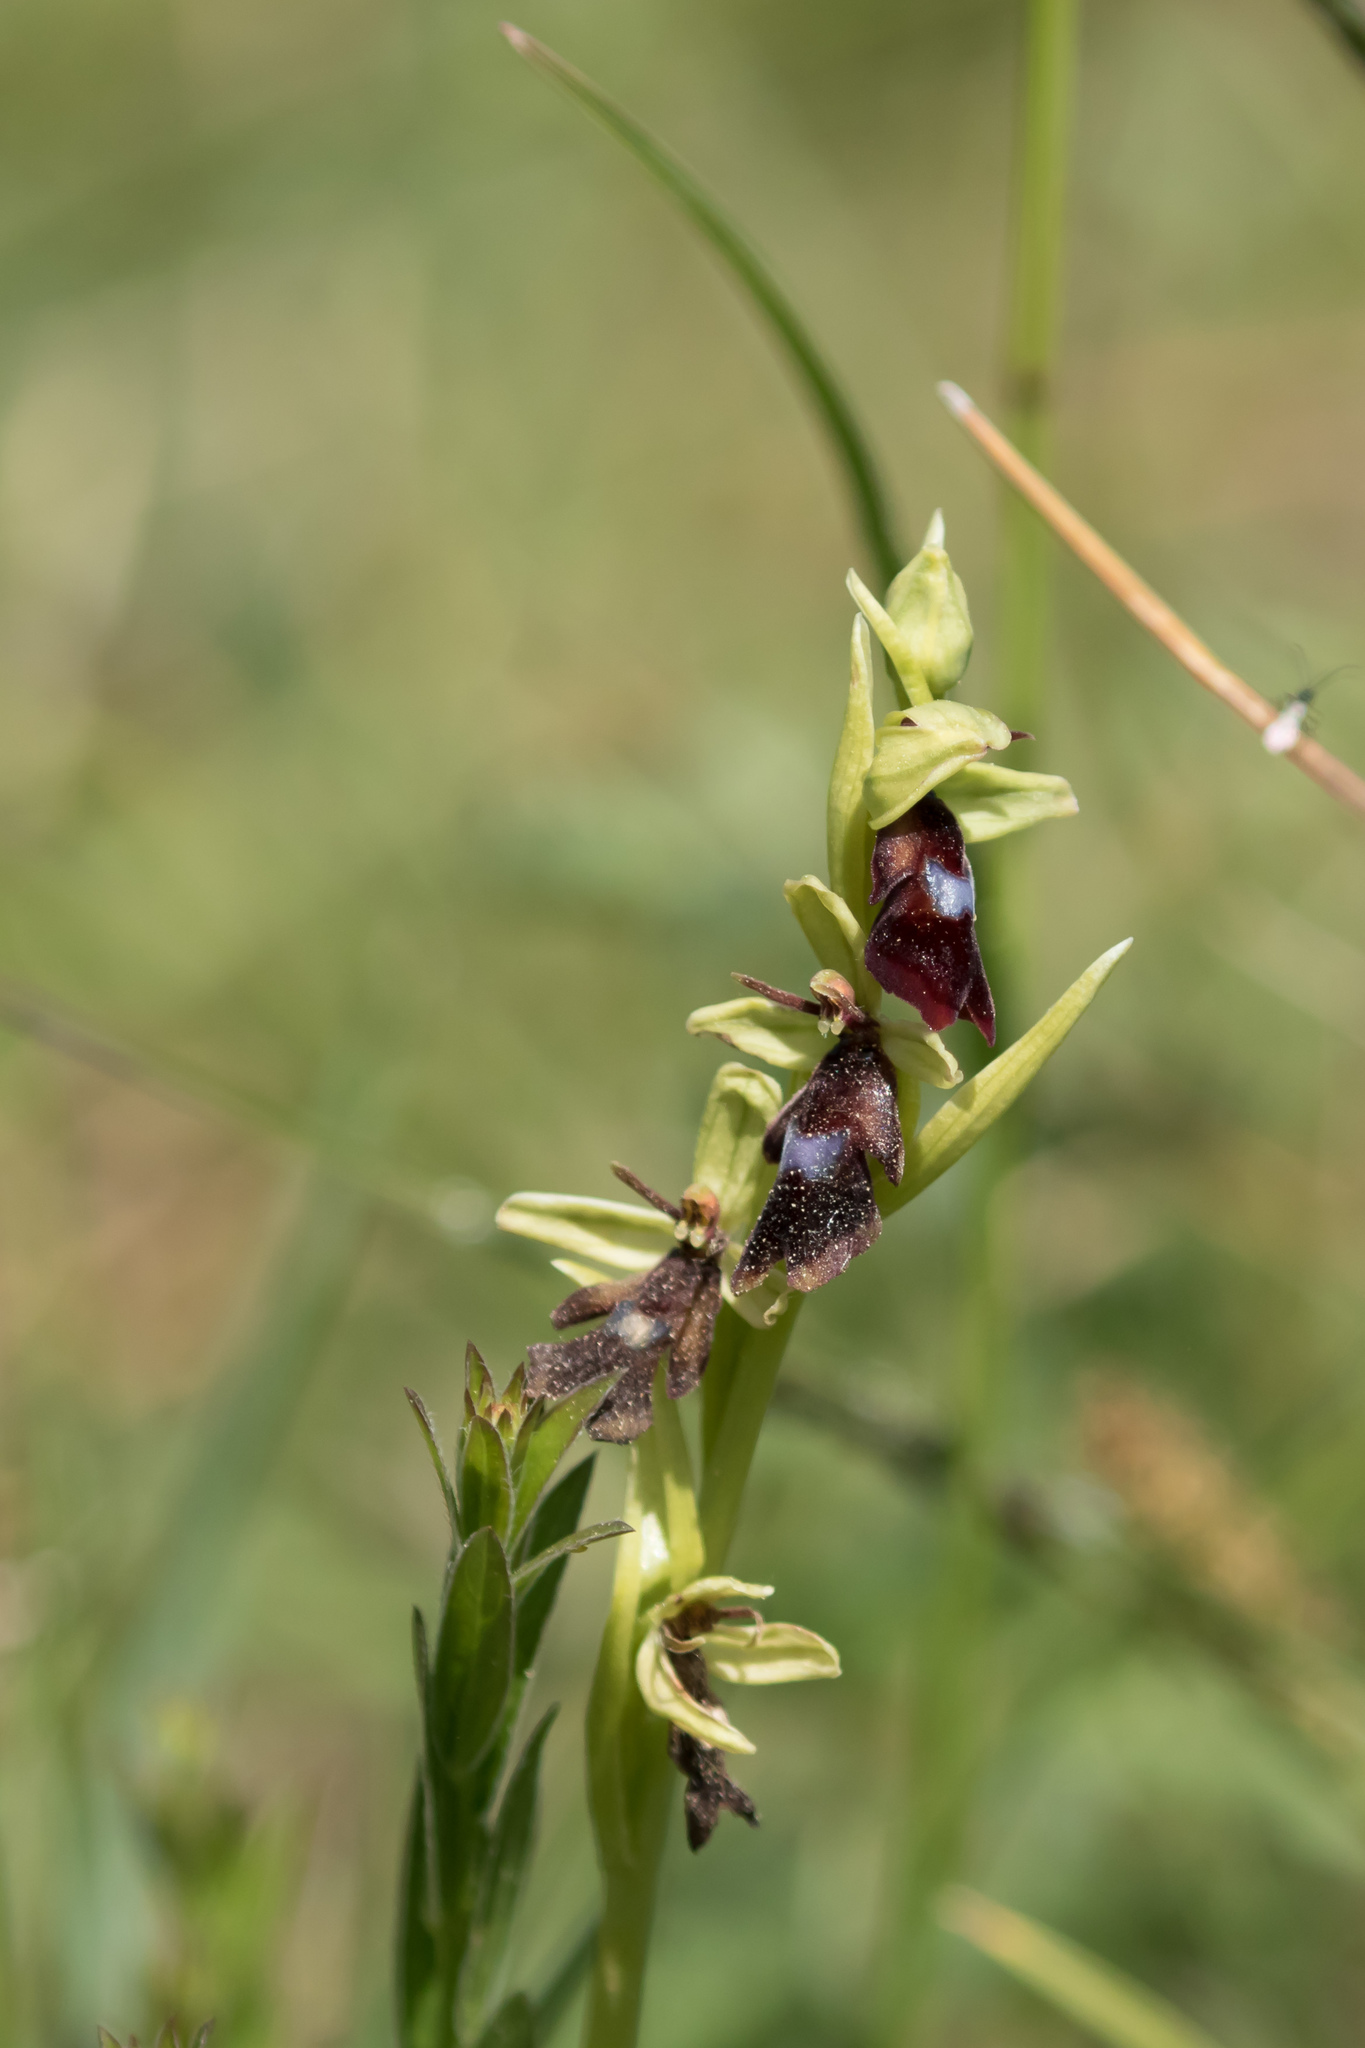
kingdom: Plantae
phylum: Tracheophyta
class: Liliopsida
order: Asparagales
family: Orchidaceae
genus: Ophrys
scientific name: Ophrys insectifera
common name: Fly orchid
